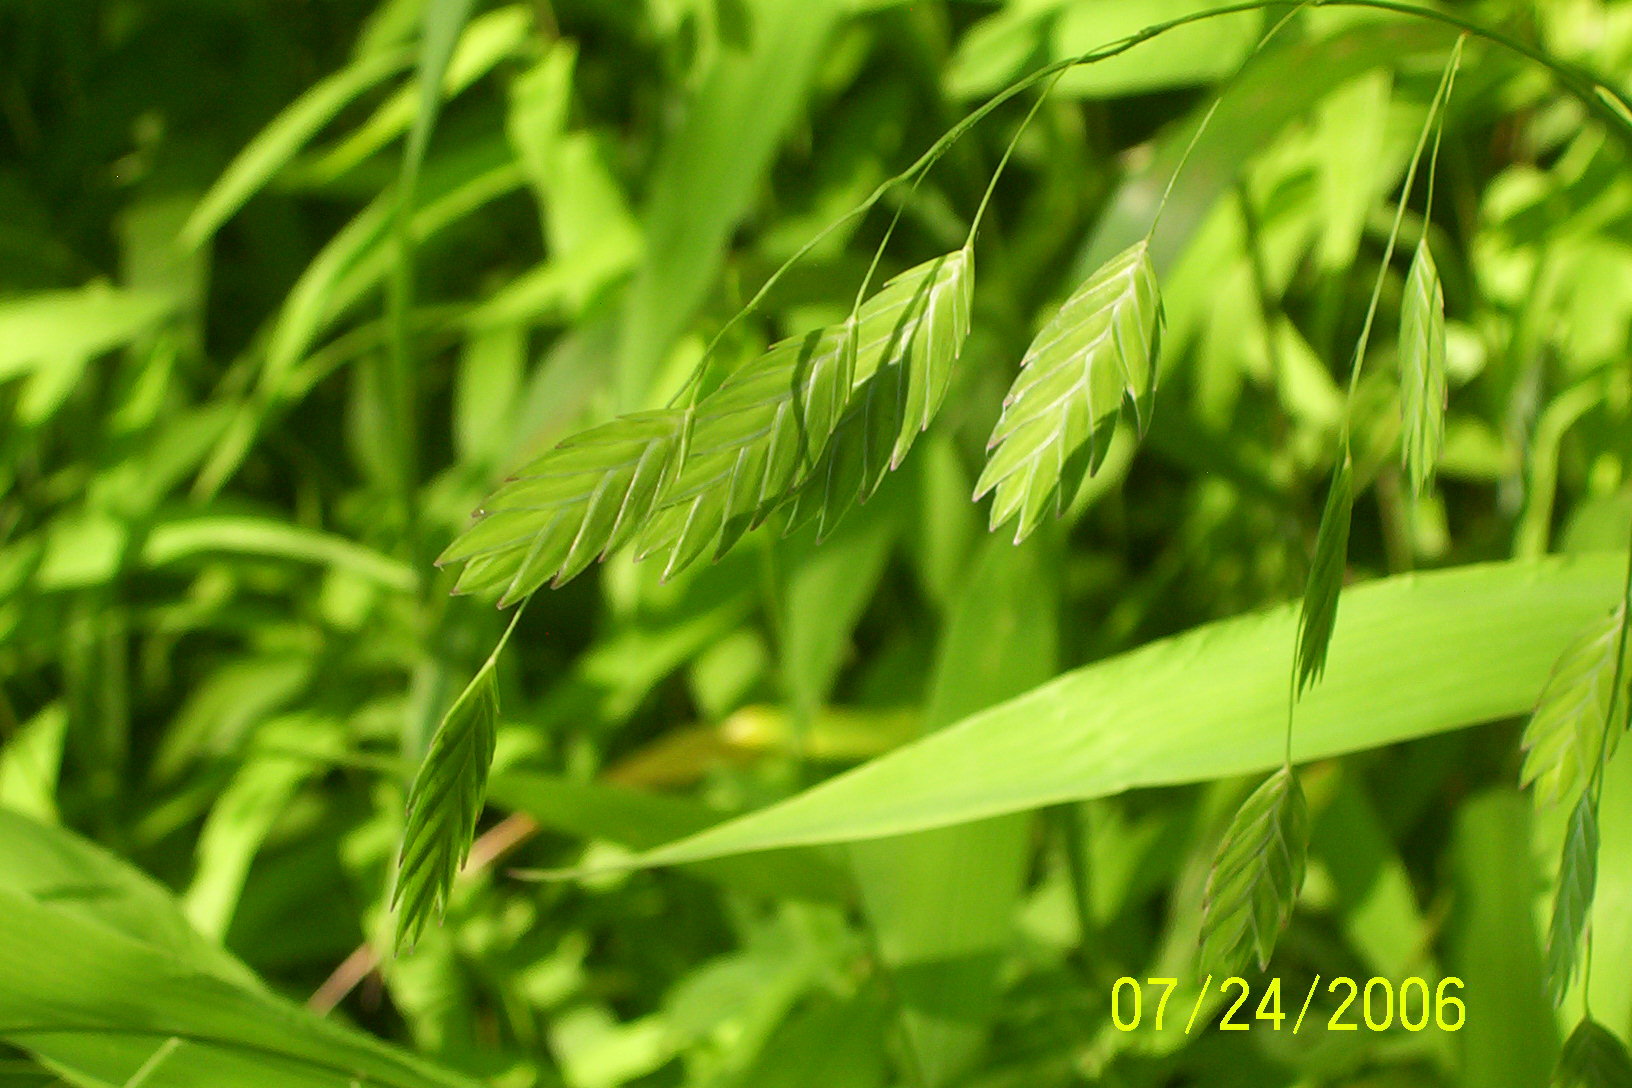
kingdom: Plantae
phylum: Tracheophyta
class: Liliopsida
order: Poales
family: Poaceae
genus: Chasmanthium
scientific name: Chasmanthium latifolium
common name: Broad-leaved chasmanthium
